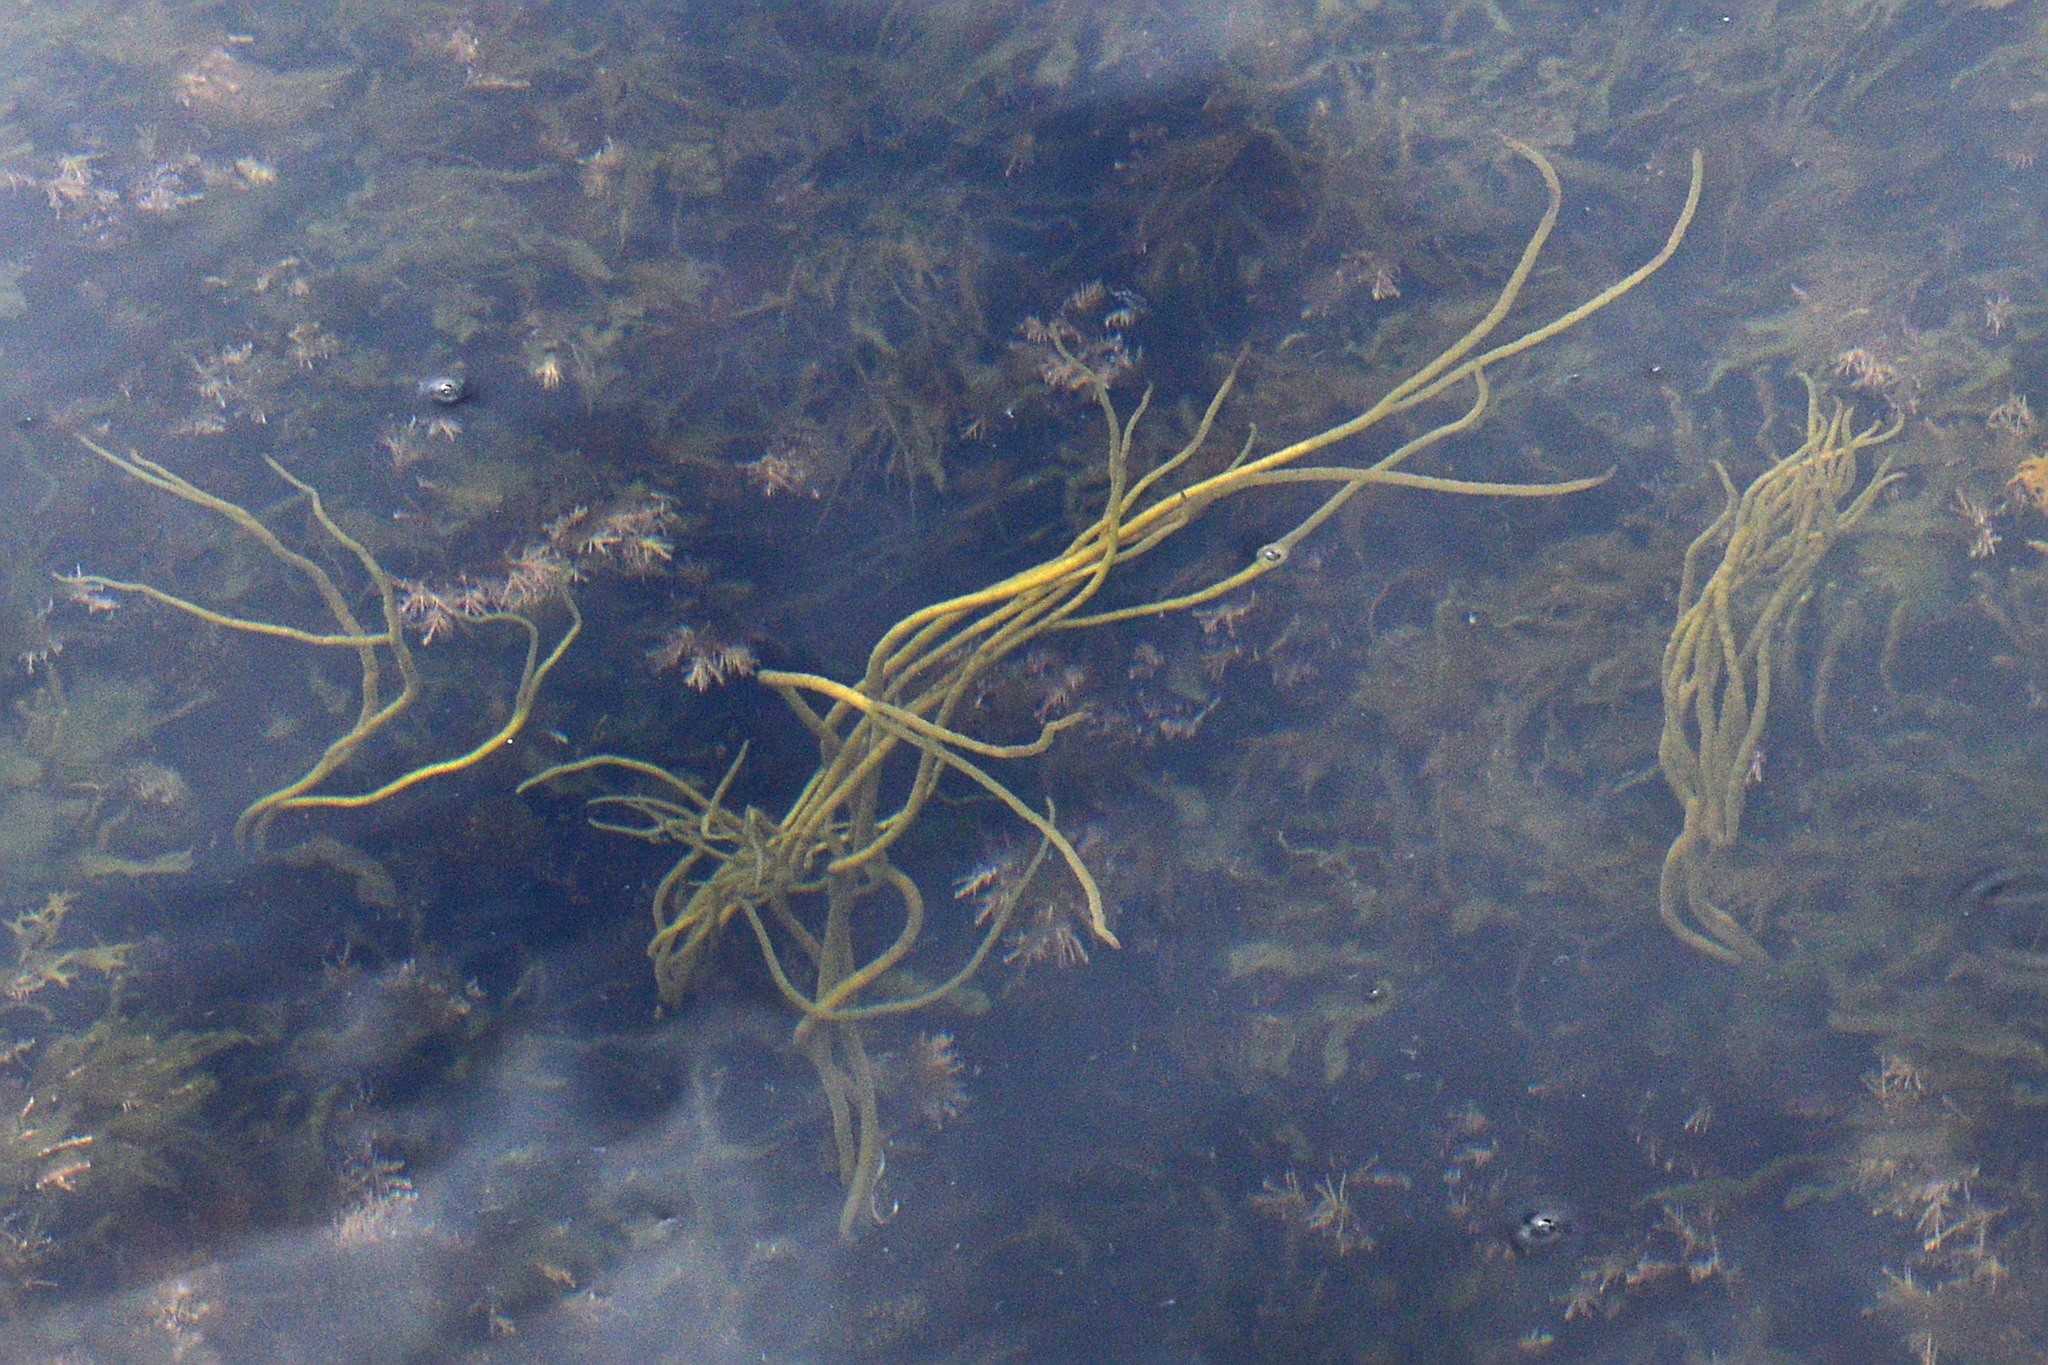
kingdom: Chromista
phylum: Ochrophyta
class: Phaeophyceae
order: Fucales
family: Himanthaliaceae
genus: Himanthalia
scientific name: Himanthalia elongata
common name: Sea-thong
